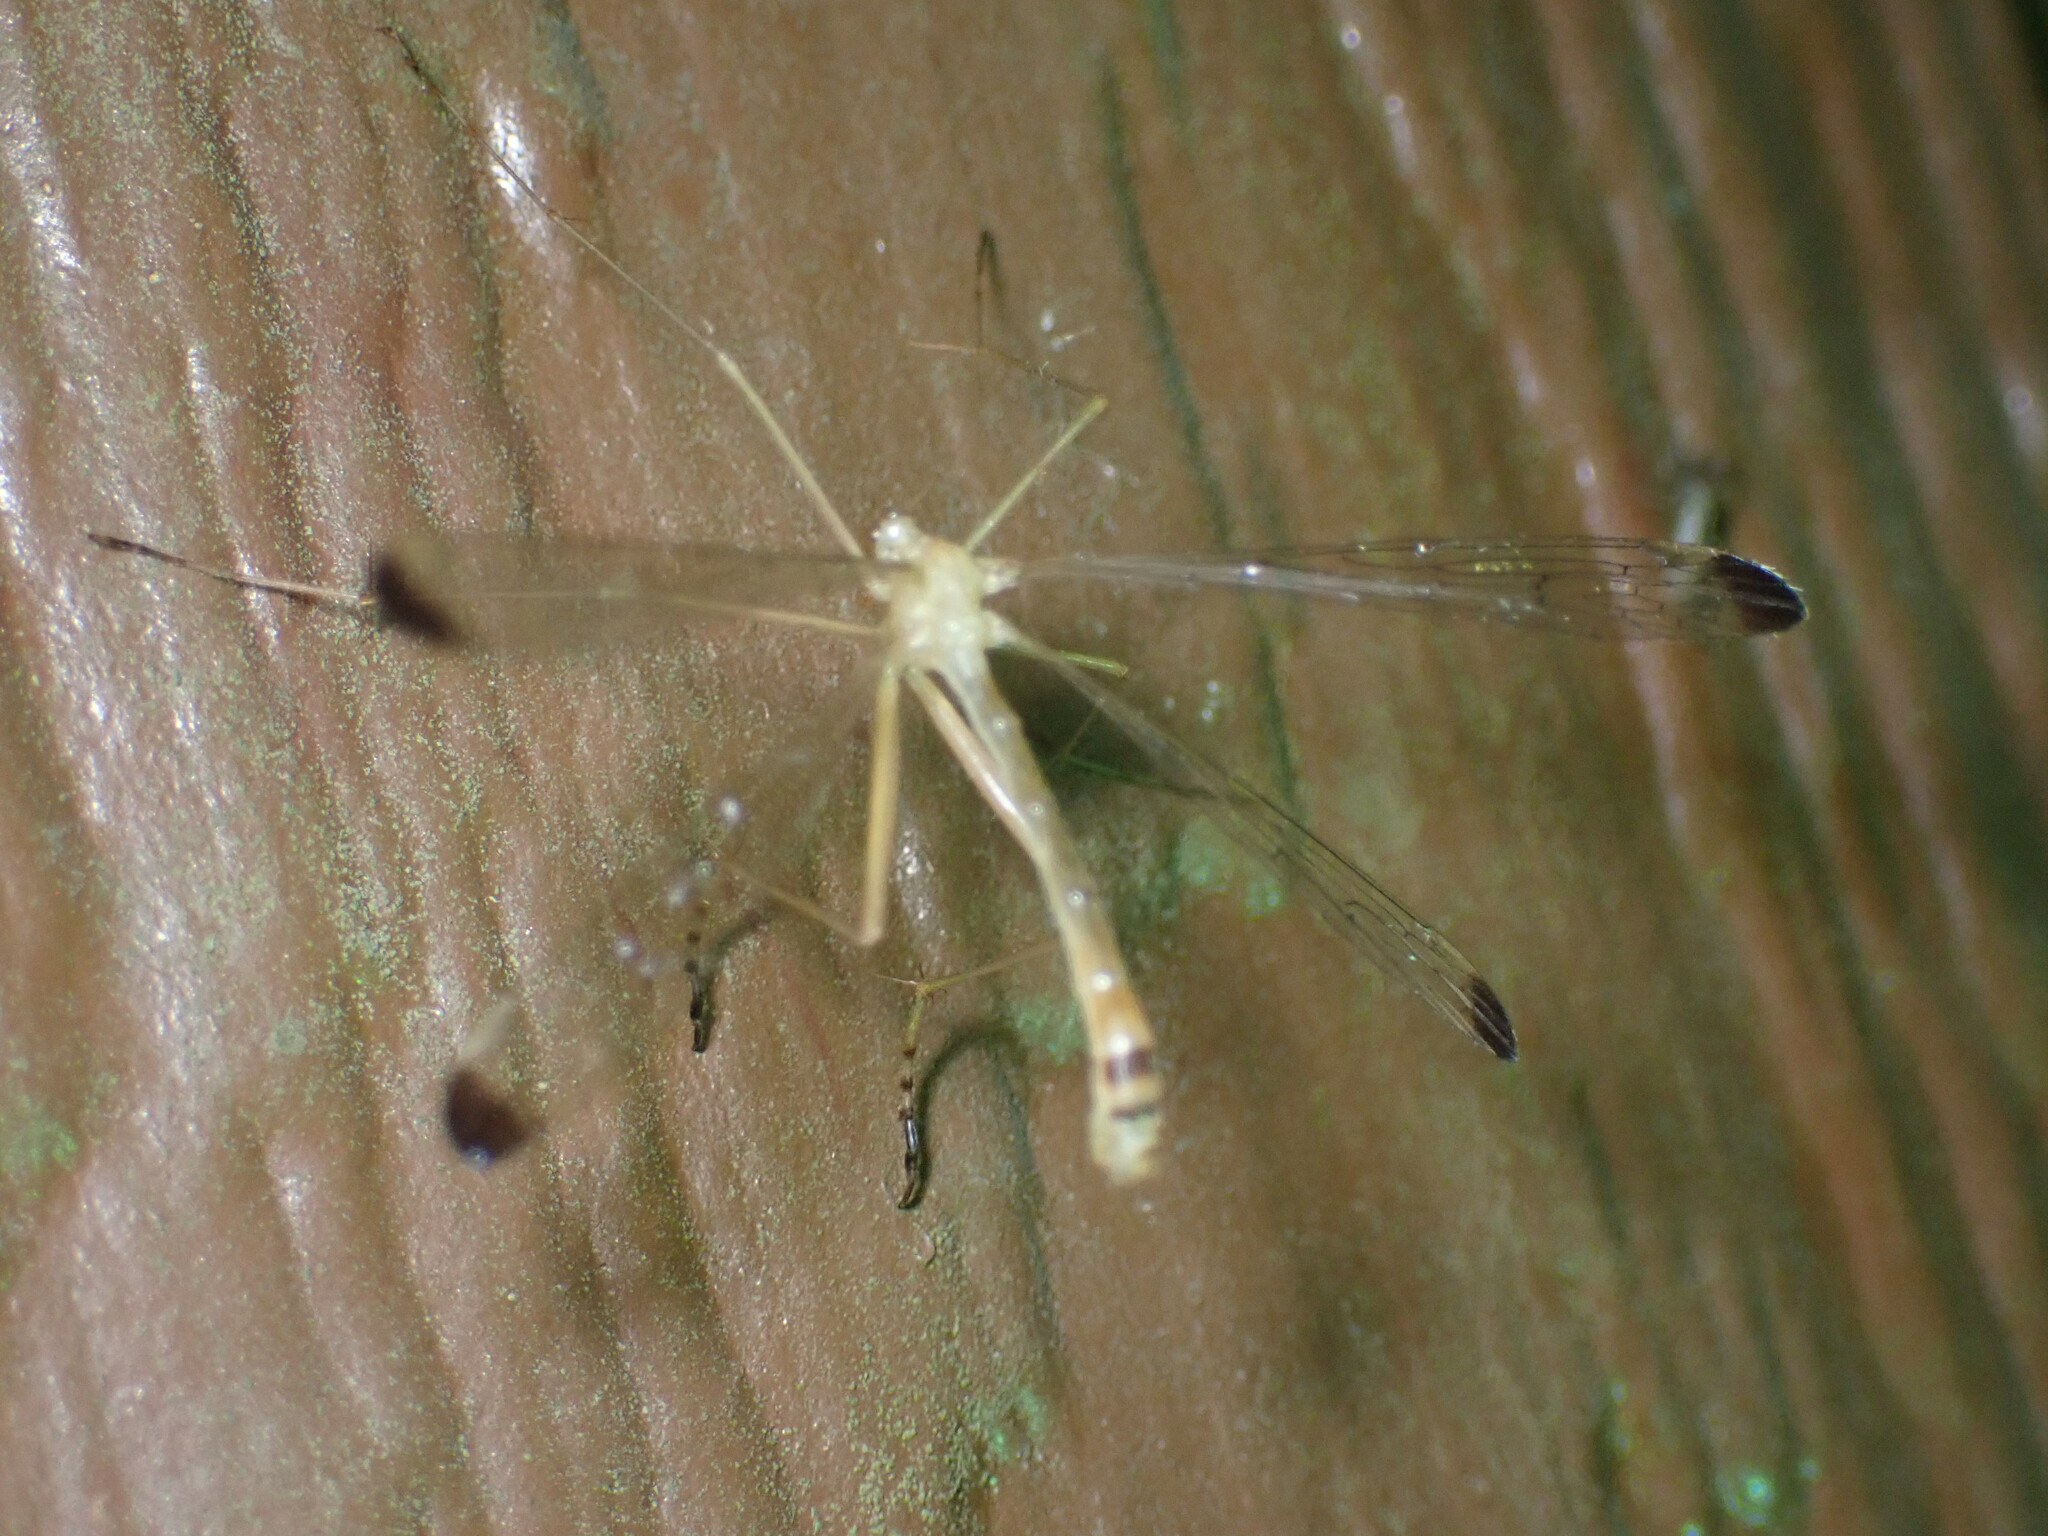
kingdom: Animalia
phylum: Arthropoda
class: Insecta
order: Mecoptera
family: Bittacidae
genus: Hylobittacus
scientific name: Hylobittacus apicalis
